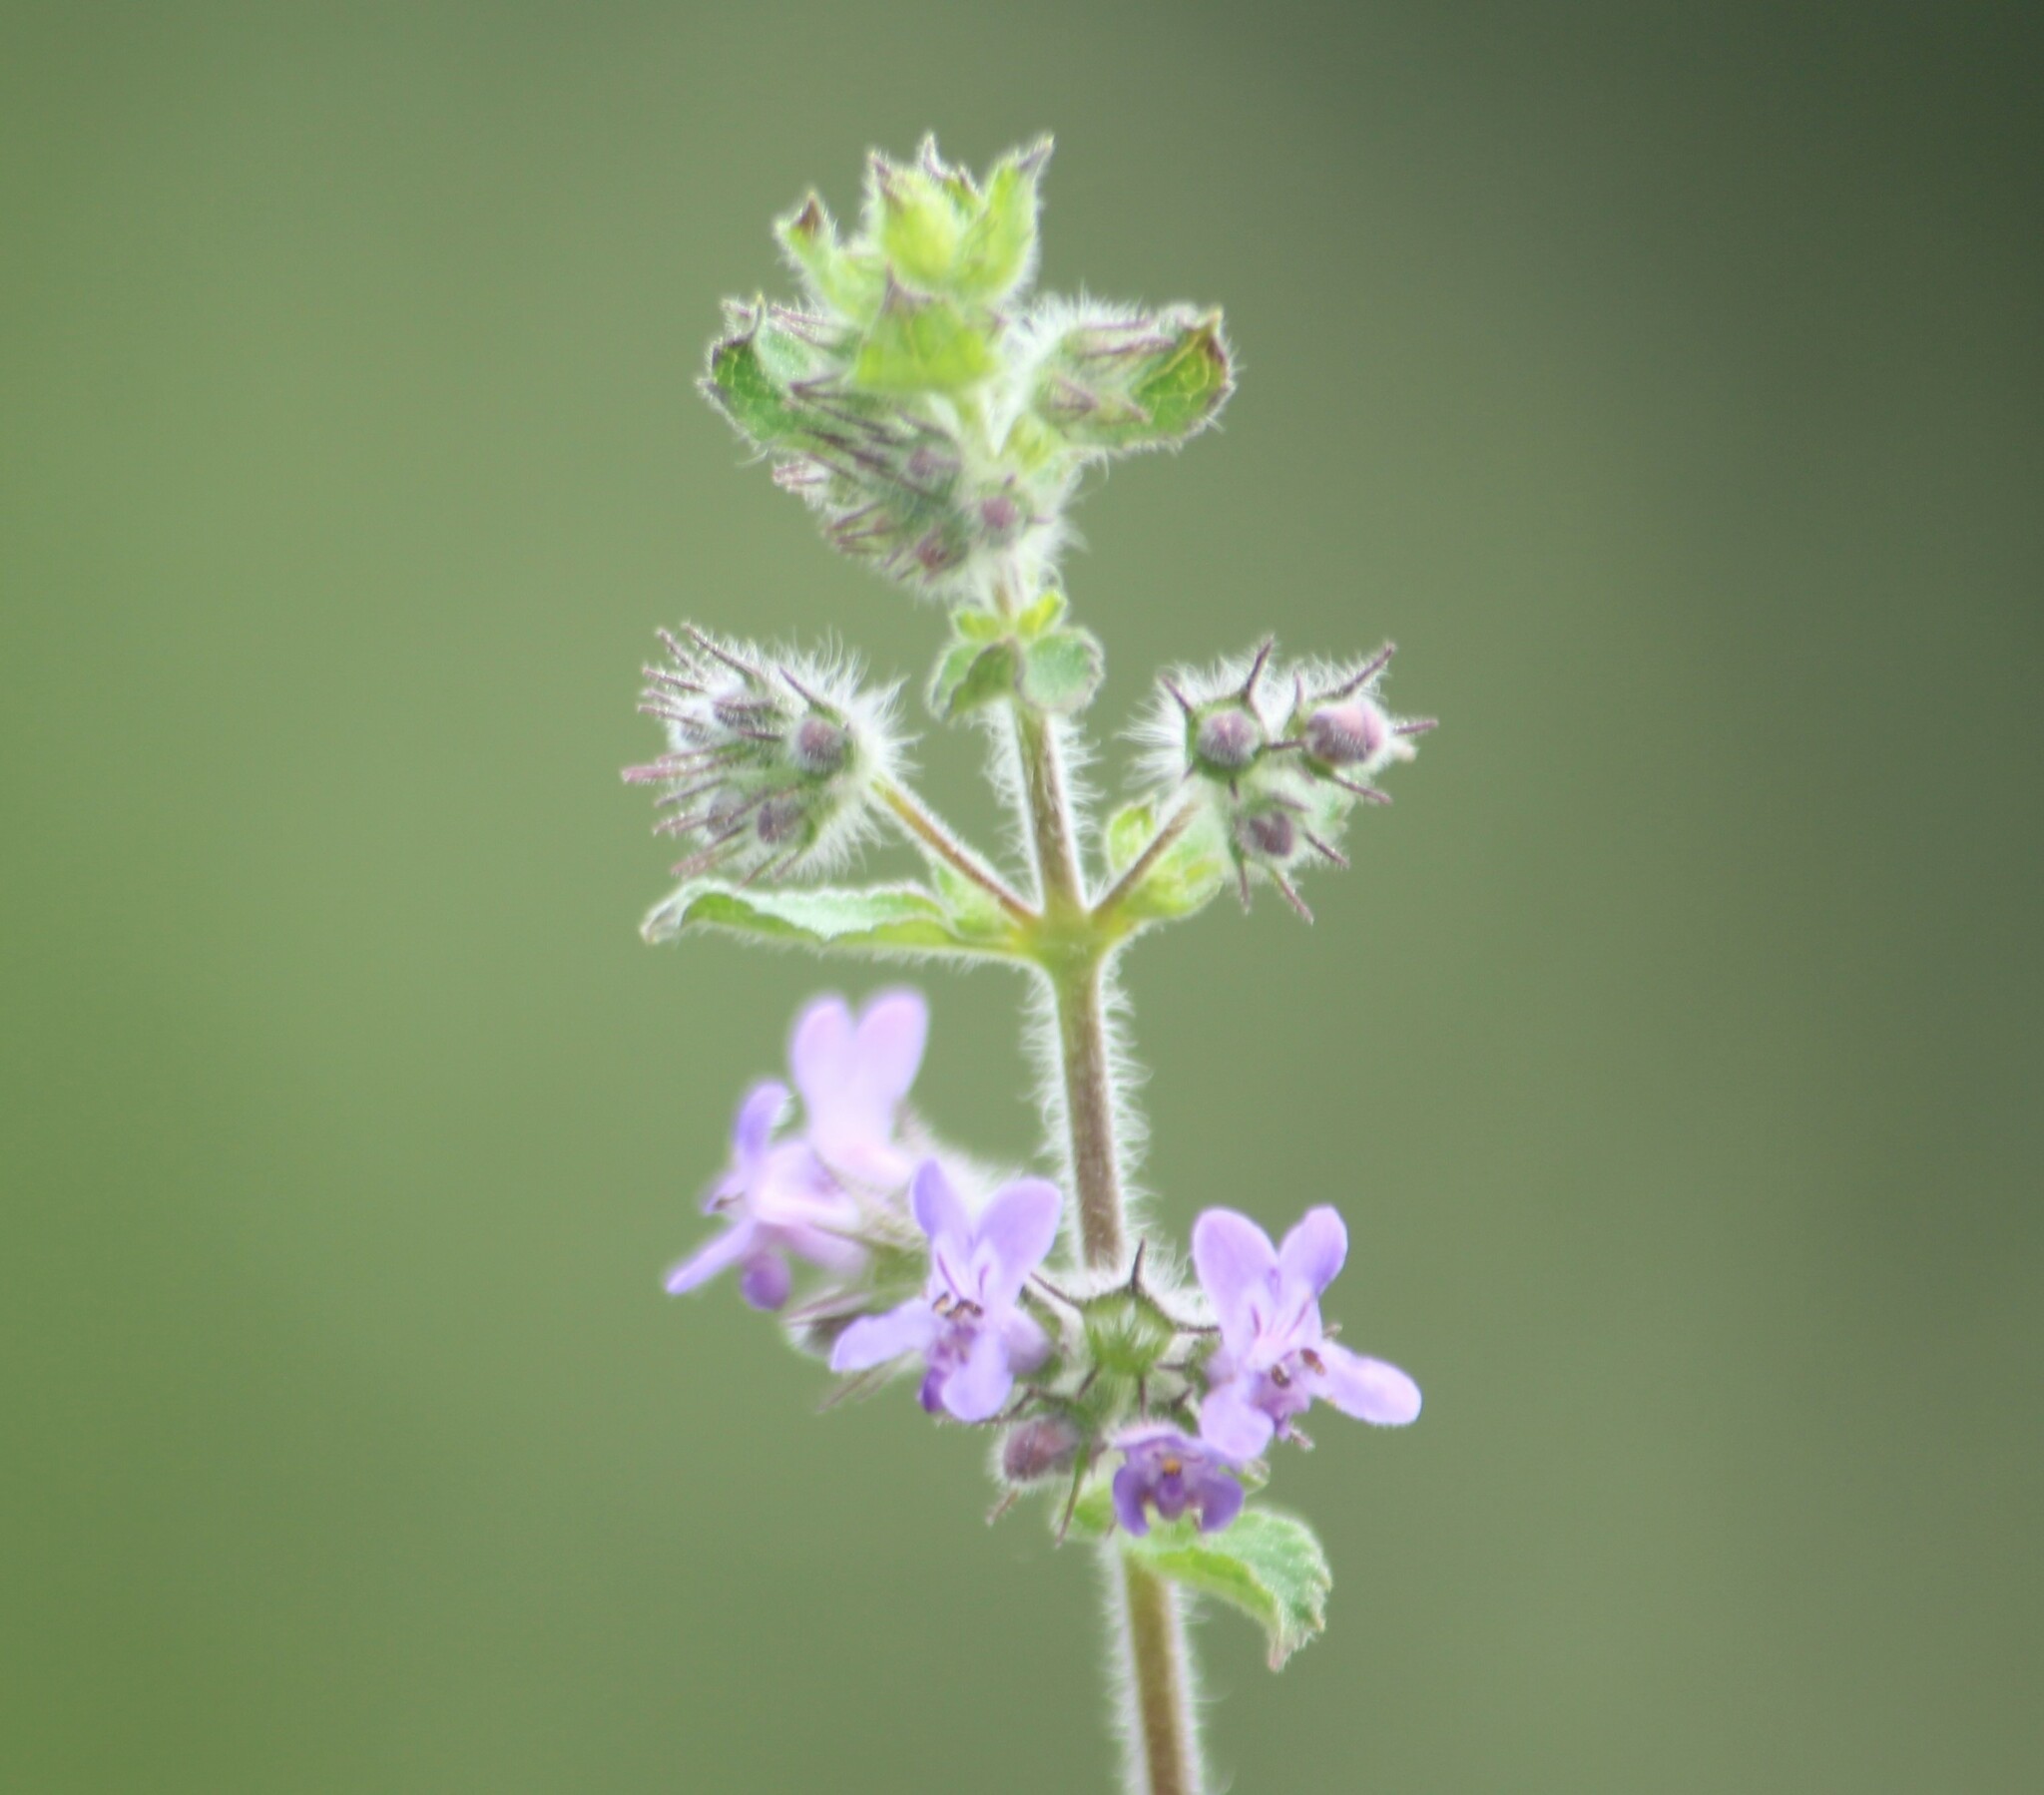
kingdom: Plantae
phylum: Tracheophyta
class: Magnoliopsida
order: Lamiales
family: Lamiaceae
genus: Mesosphaerum
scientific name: Mesosphaerum suaveolens
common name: Pignut
